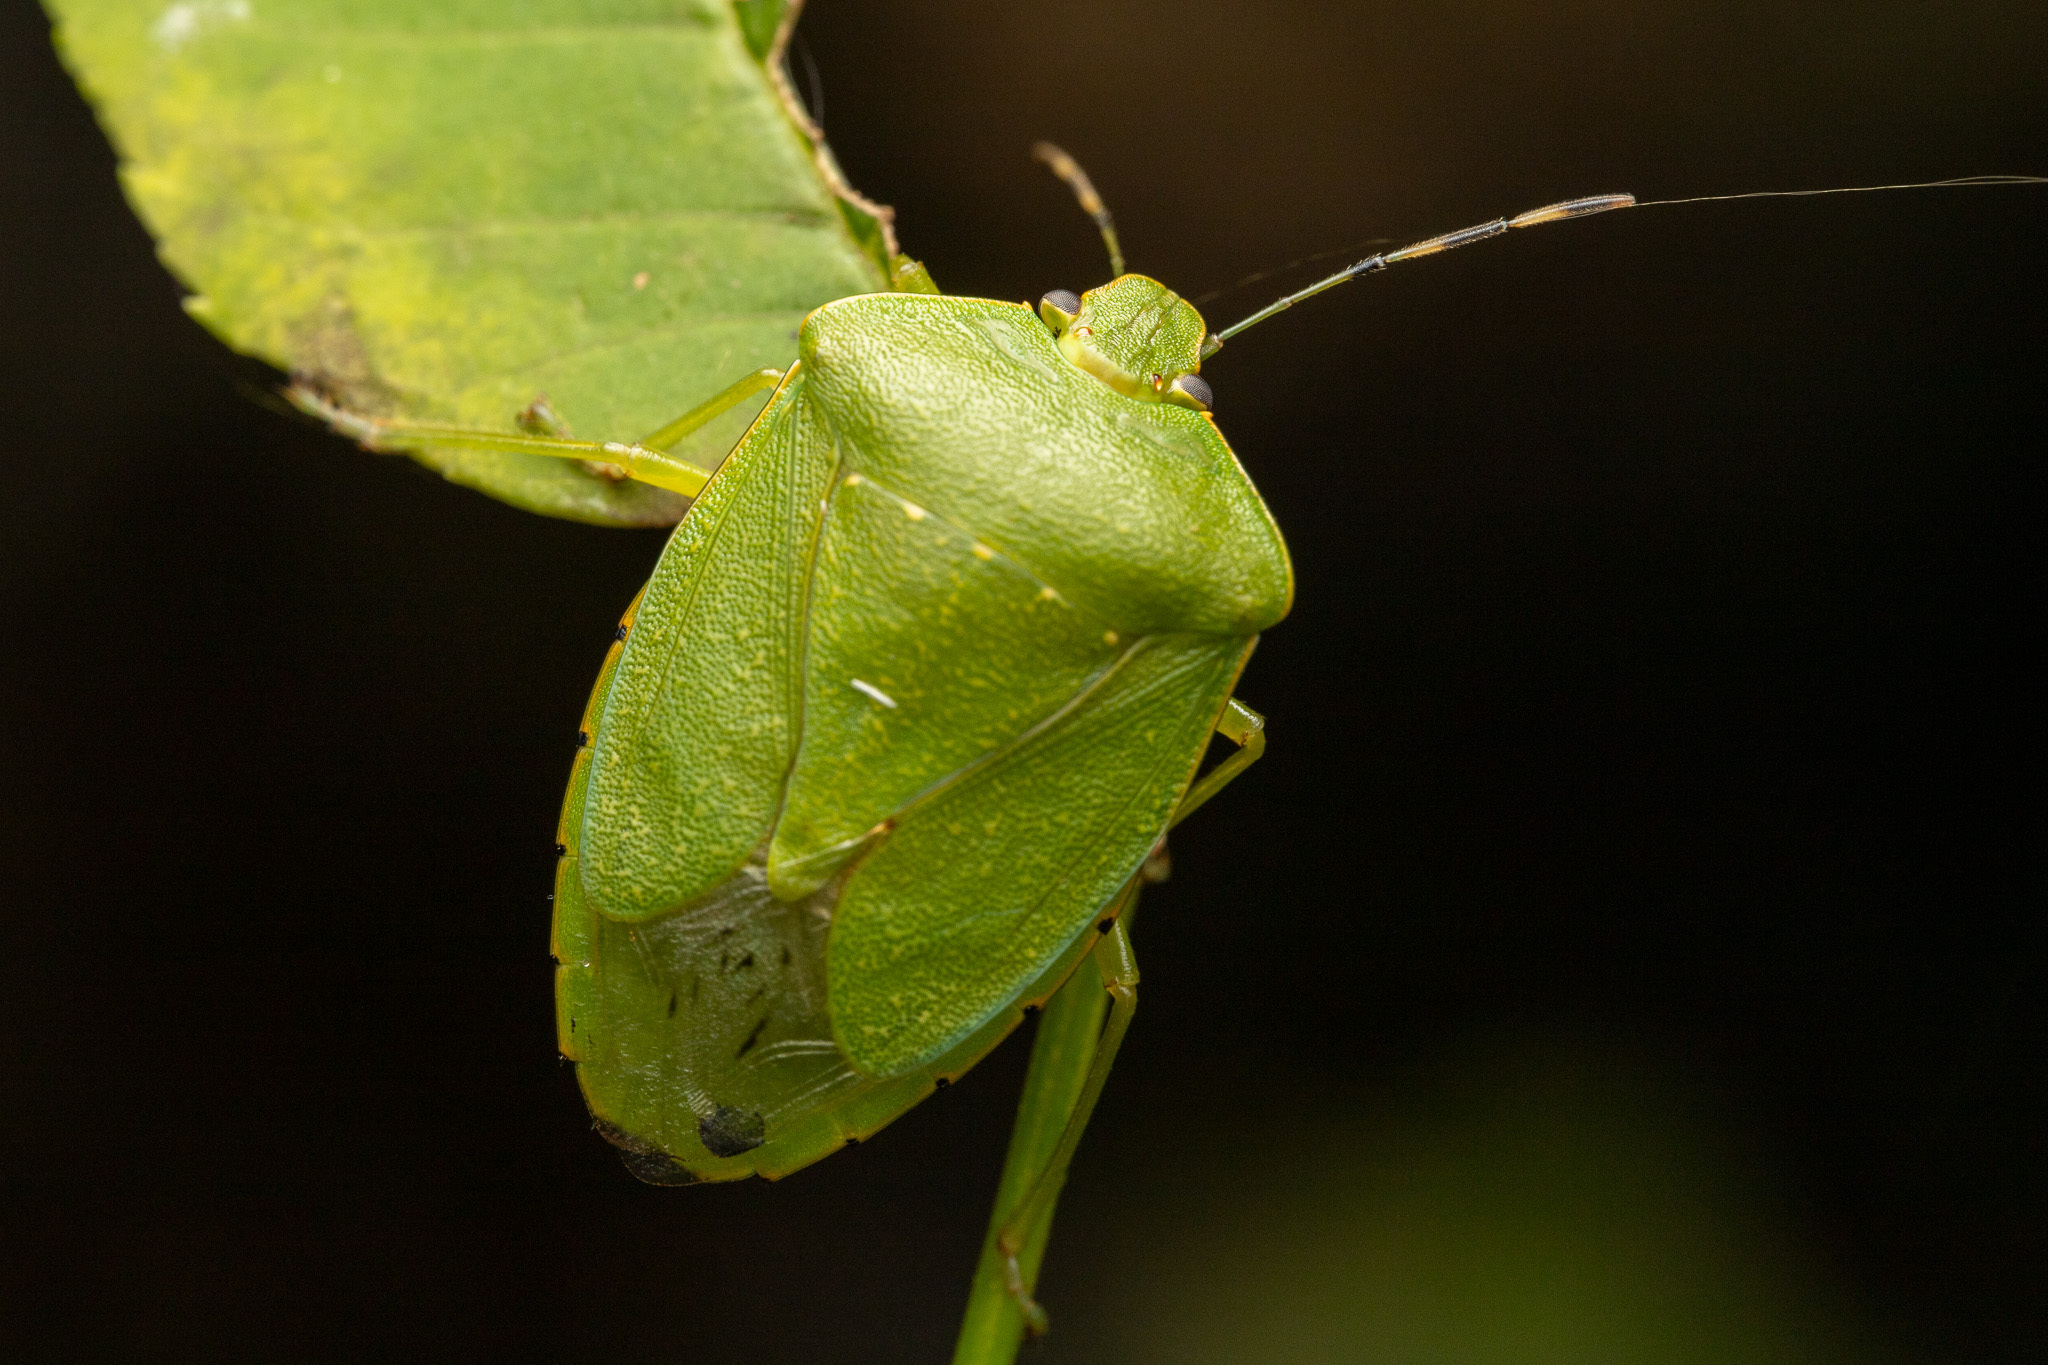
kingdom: Animalia
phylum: Arthropoda
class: Insecta
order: Hemiptera
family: Pentatomidae
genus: Chinavia
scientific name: Chinavia hilaris
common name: Green stink bug
